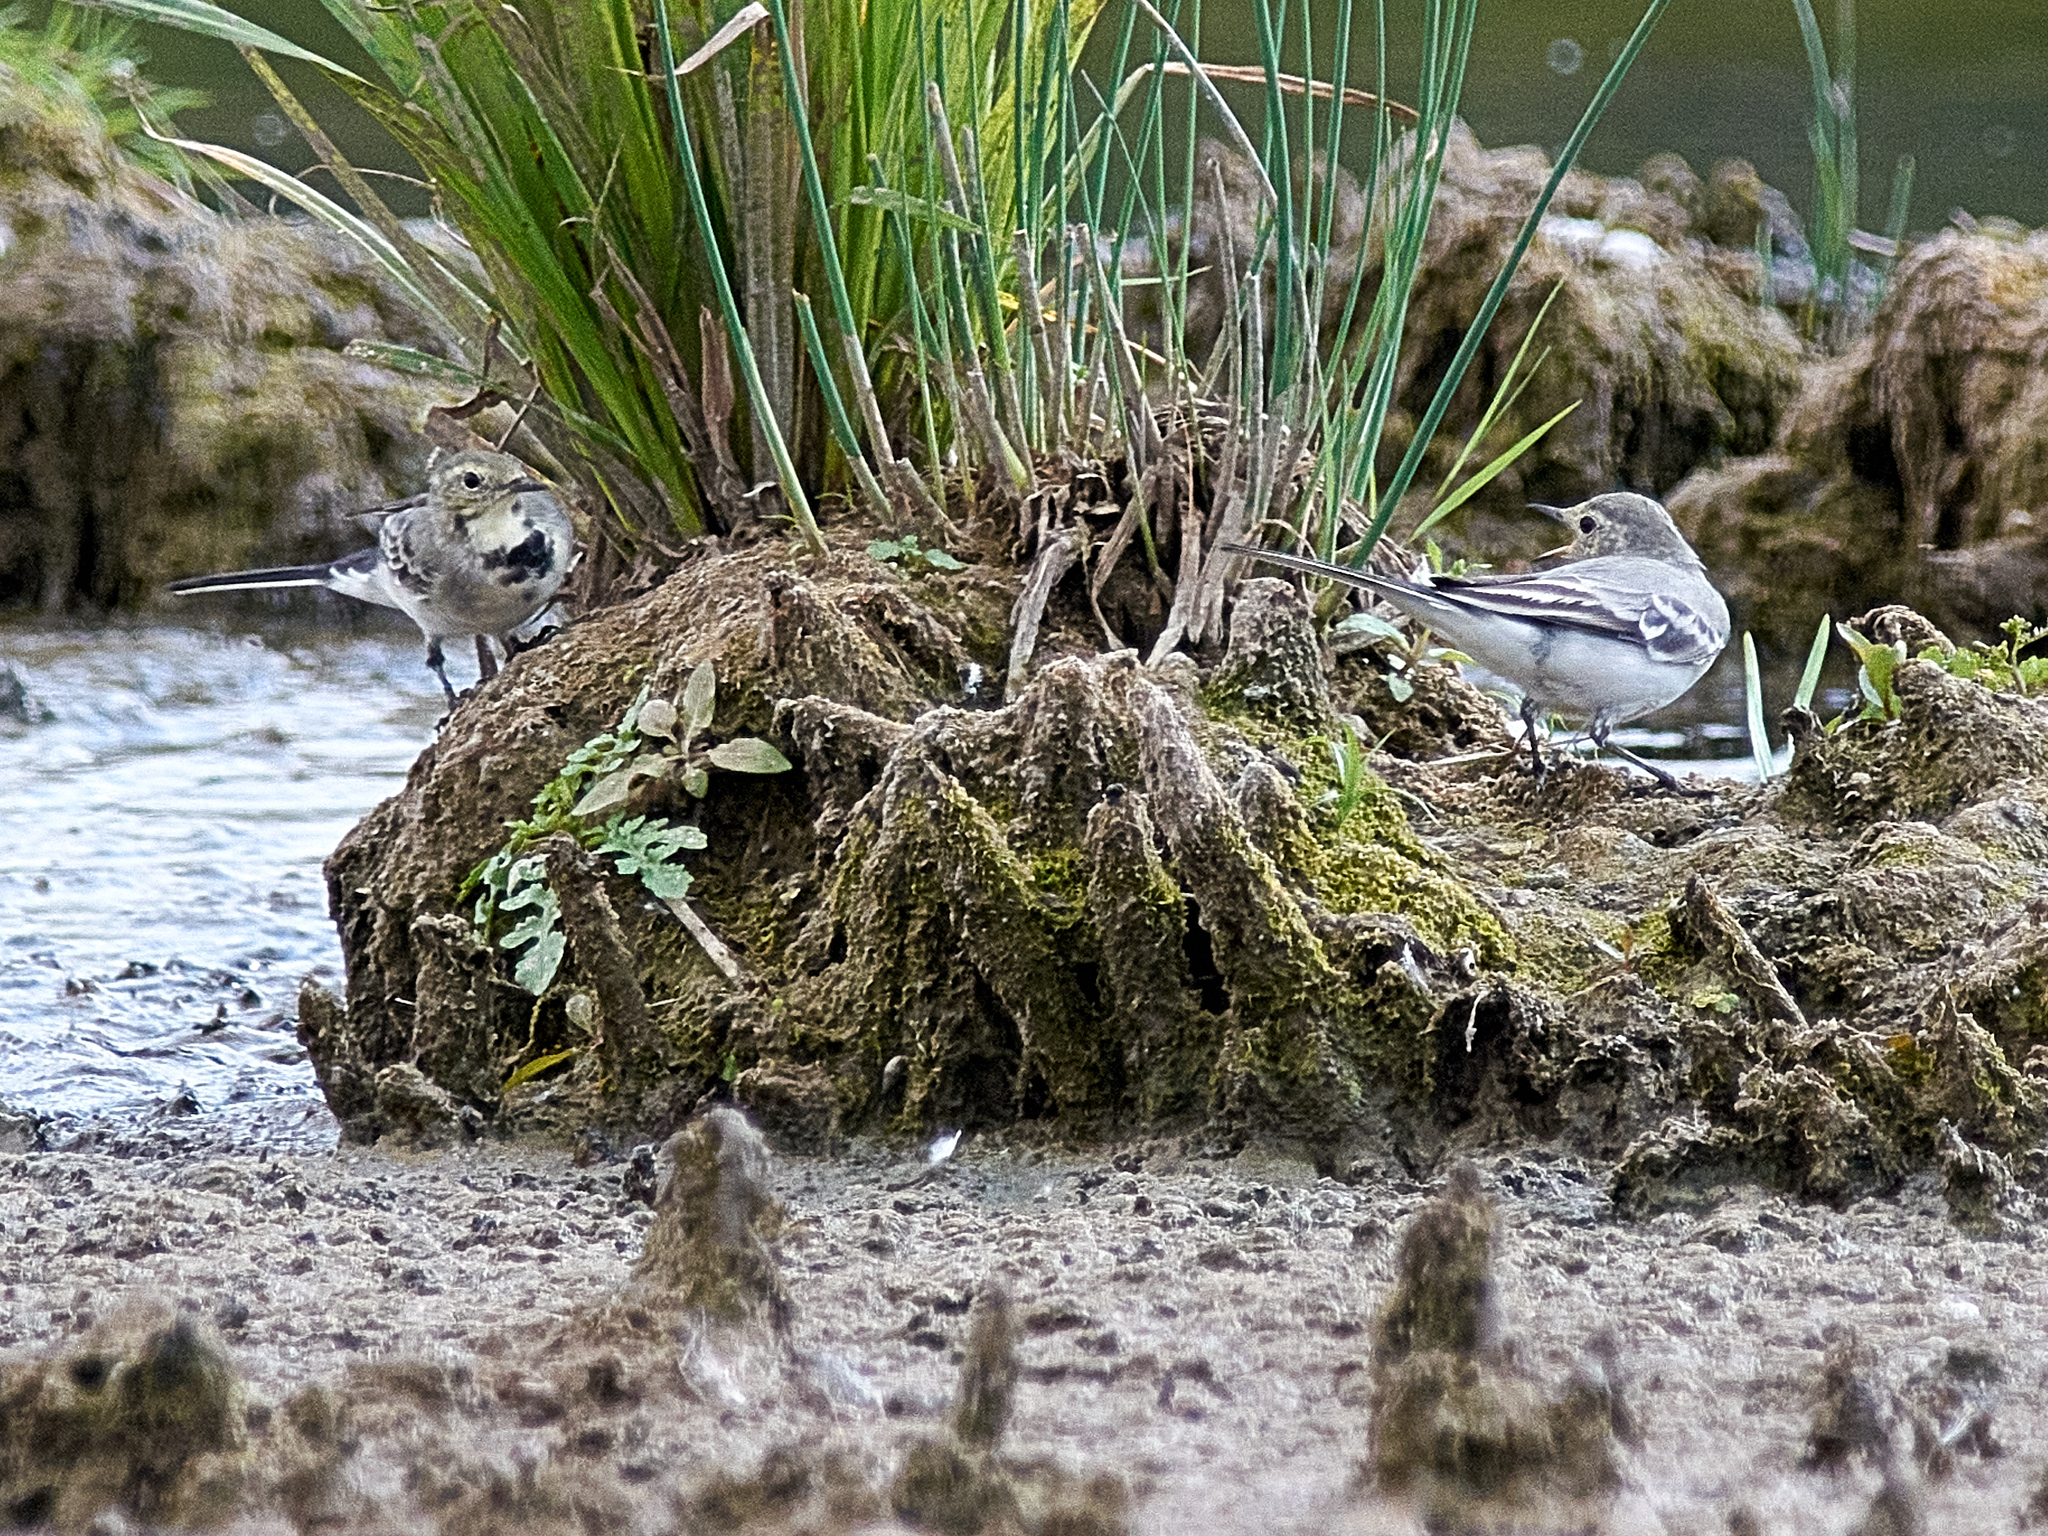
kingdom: Animalia
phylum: Chordata
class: Aves
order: Passeriformes
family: Motacillidae
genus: Motacilla
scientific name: Motacilla alba
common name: White wagtail
